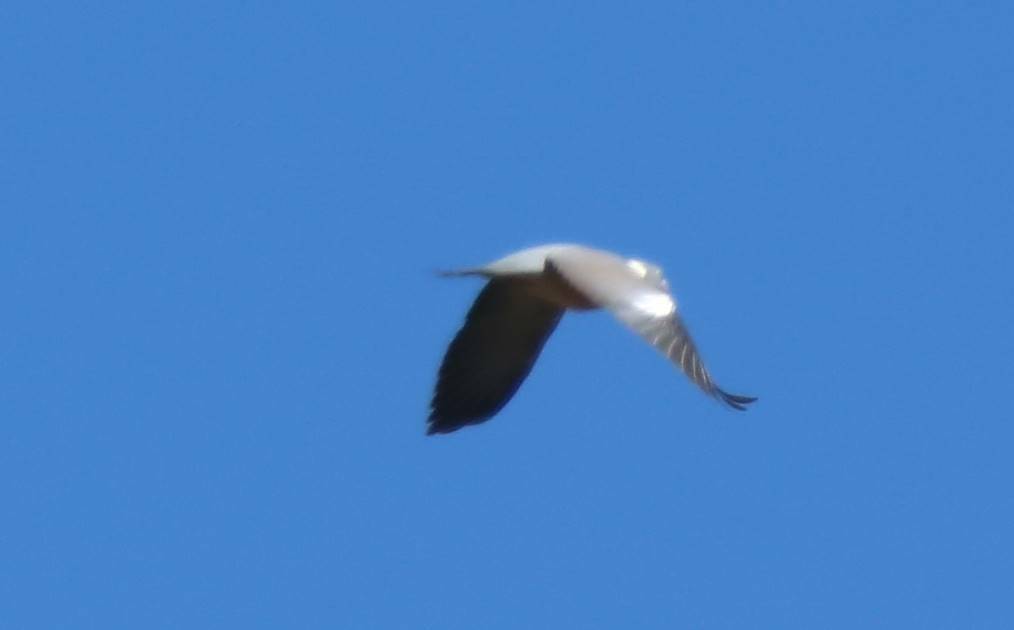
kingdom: Animalia
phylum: Chordata
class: Aves
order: Columbiformes
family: Columbidae
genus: Columba
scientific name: Columba palumbus
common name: Common wood pigeon
